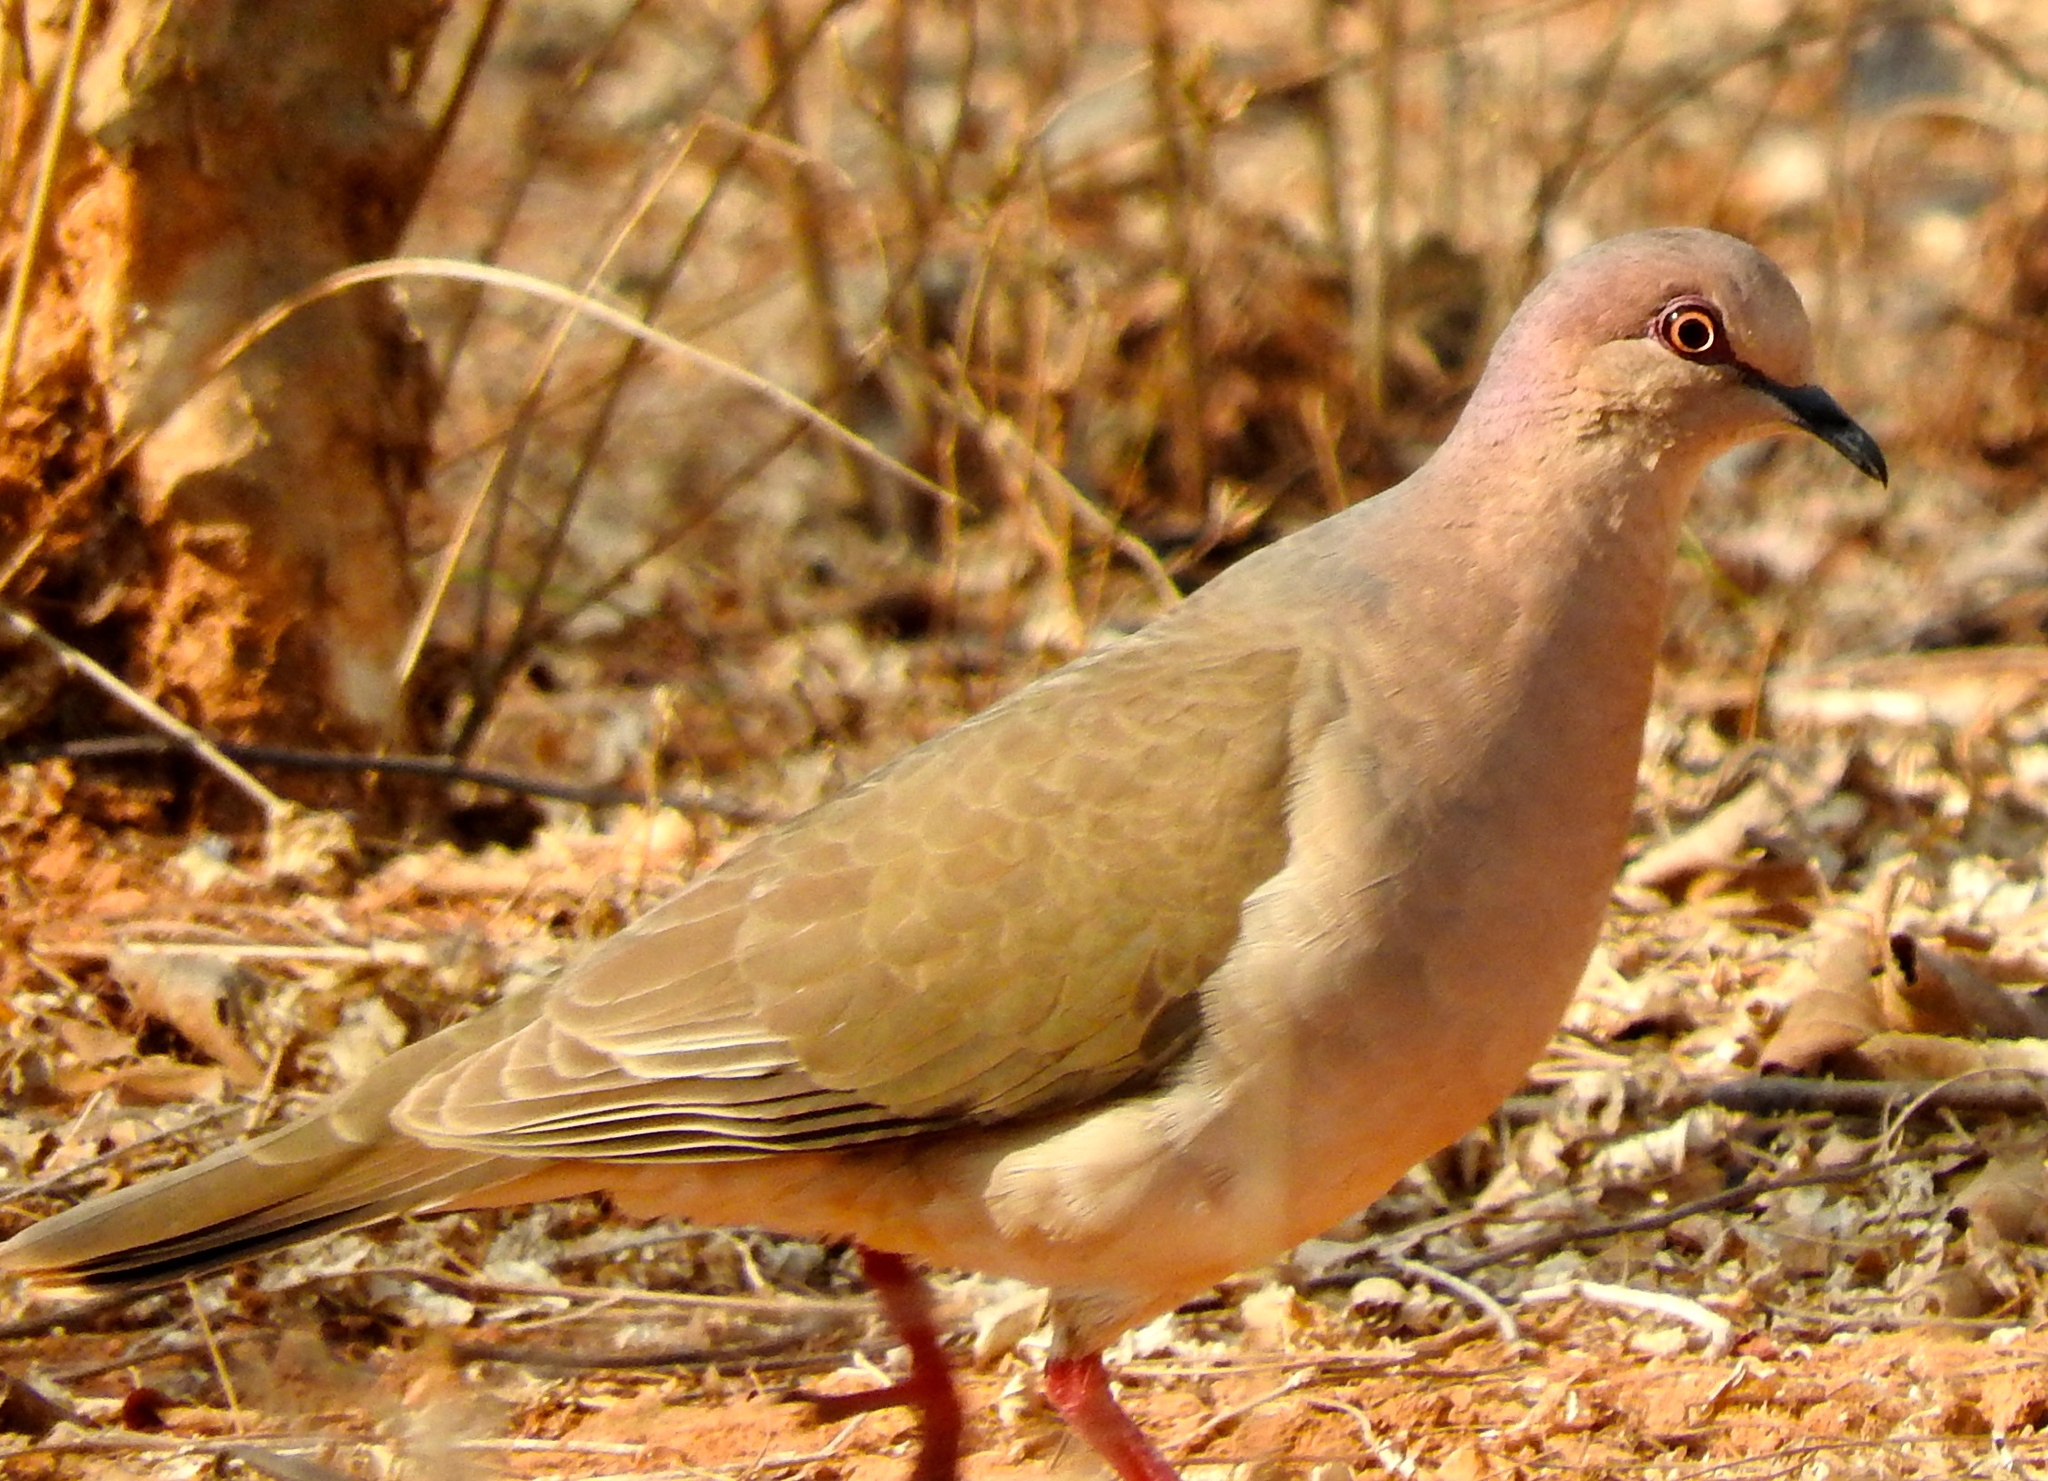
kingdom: Animalia
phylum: Chordata
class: Aves
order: Columbiformes
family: Columbidae
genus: Leptotila
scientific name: Leptotila verreauxi
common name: White-tipped dove
